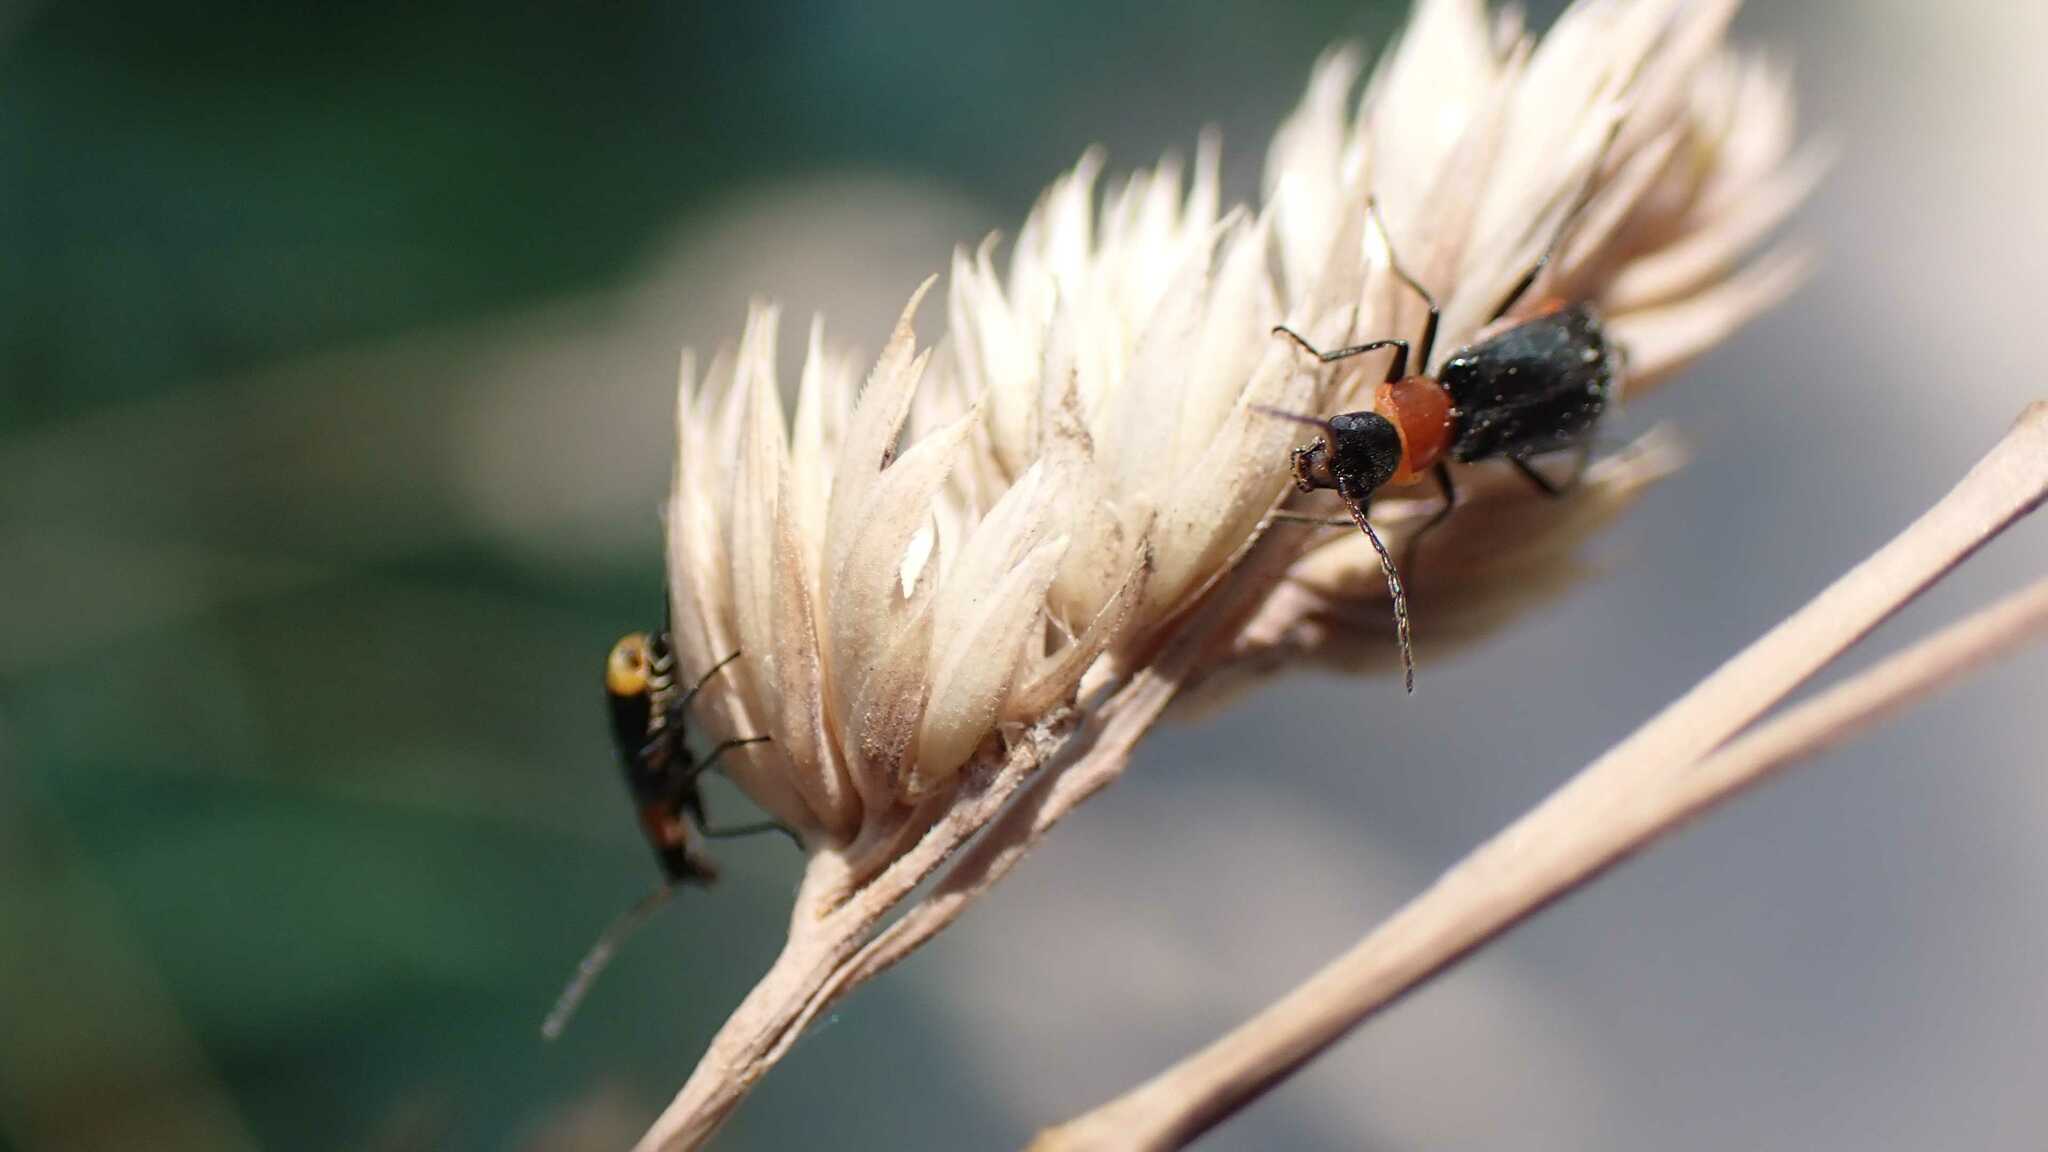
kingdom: Animalia
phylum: Arthropoda
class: Insecta
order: Coleoptera
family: Melyridae
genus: Axinotarsus
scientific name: Axinotarsus ruficollis
